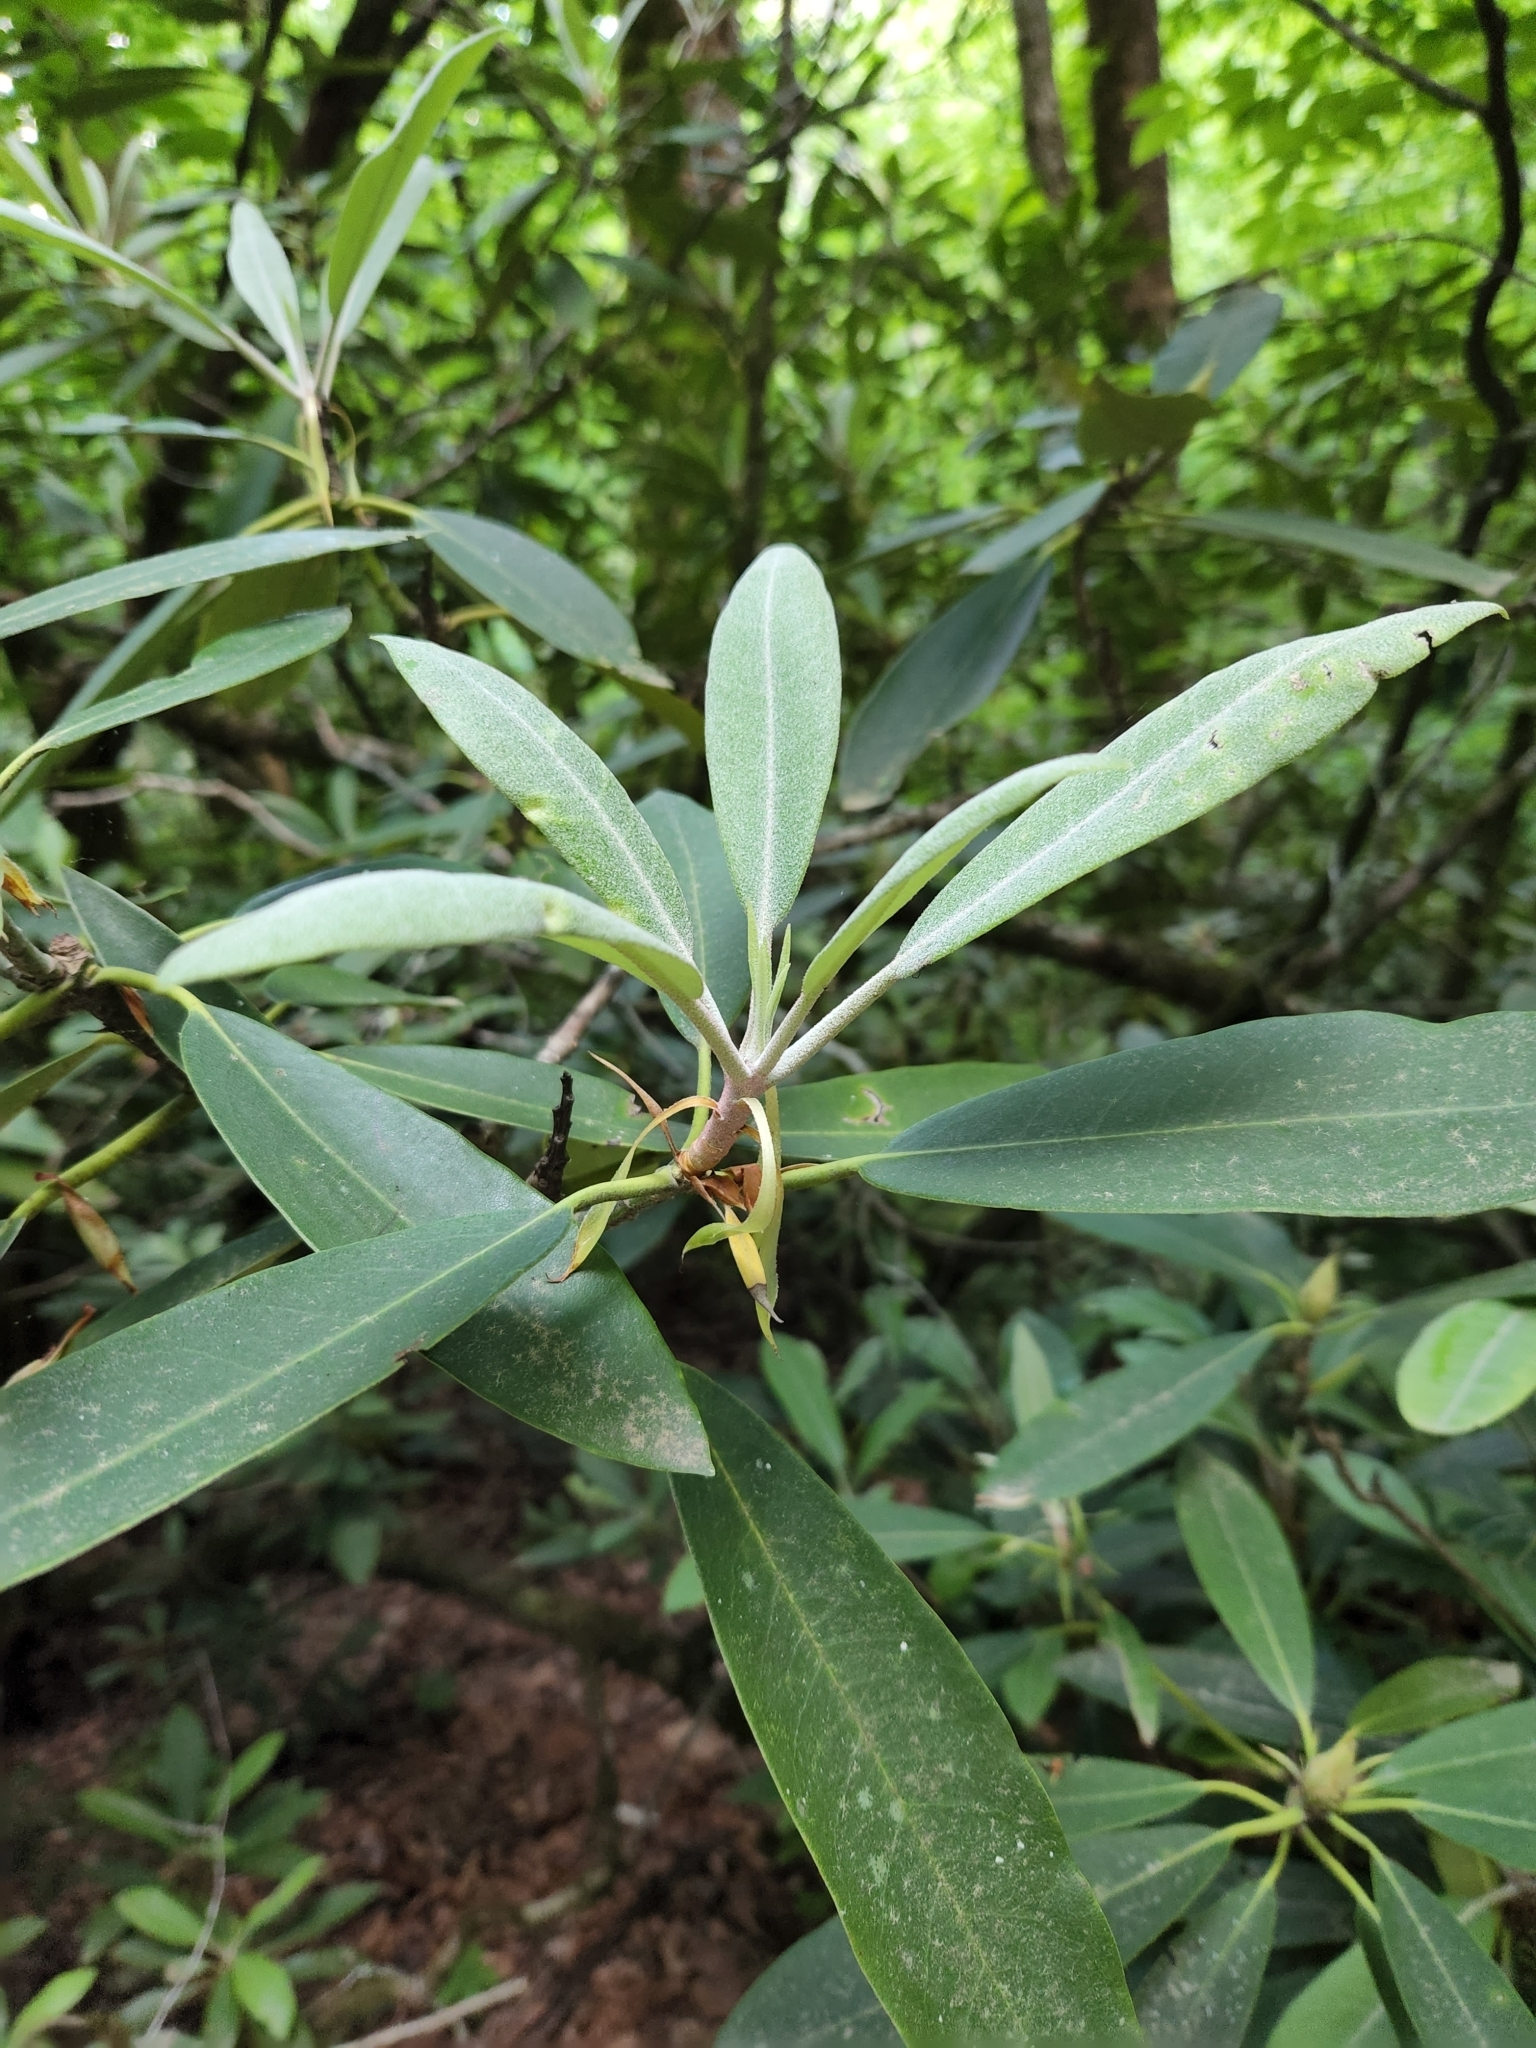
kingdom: Plantae
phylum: Tracheophyta
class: Magnoliopsida
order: Ericales
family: Ericaceae
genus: Rhododendron
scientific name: Rhododendron maximum
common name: Great rhododendron
